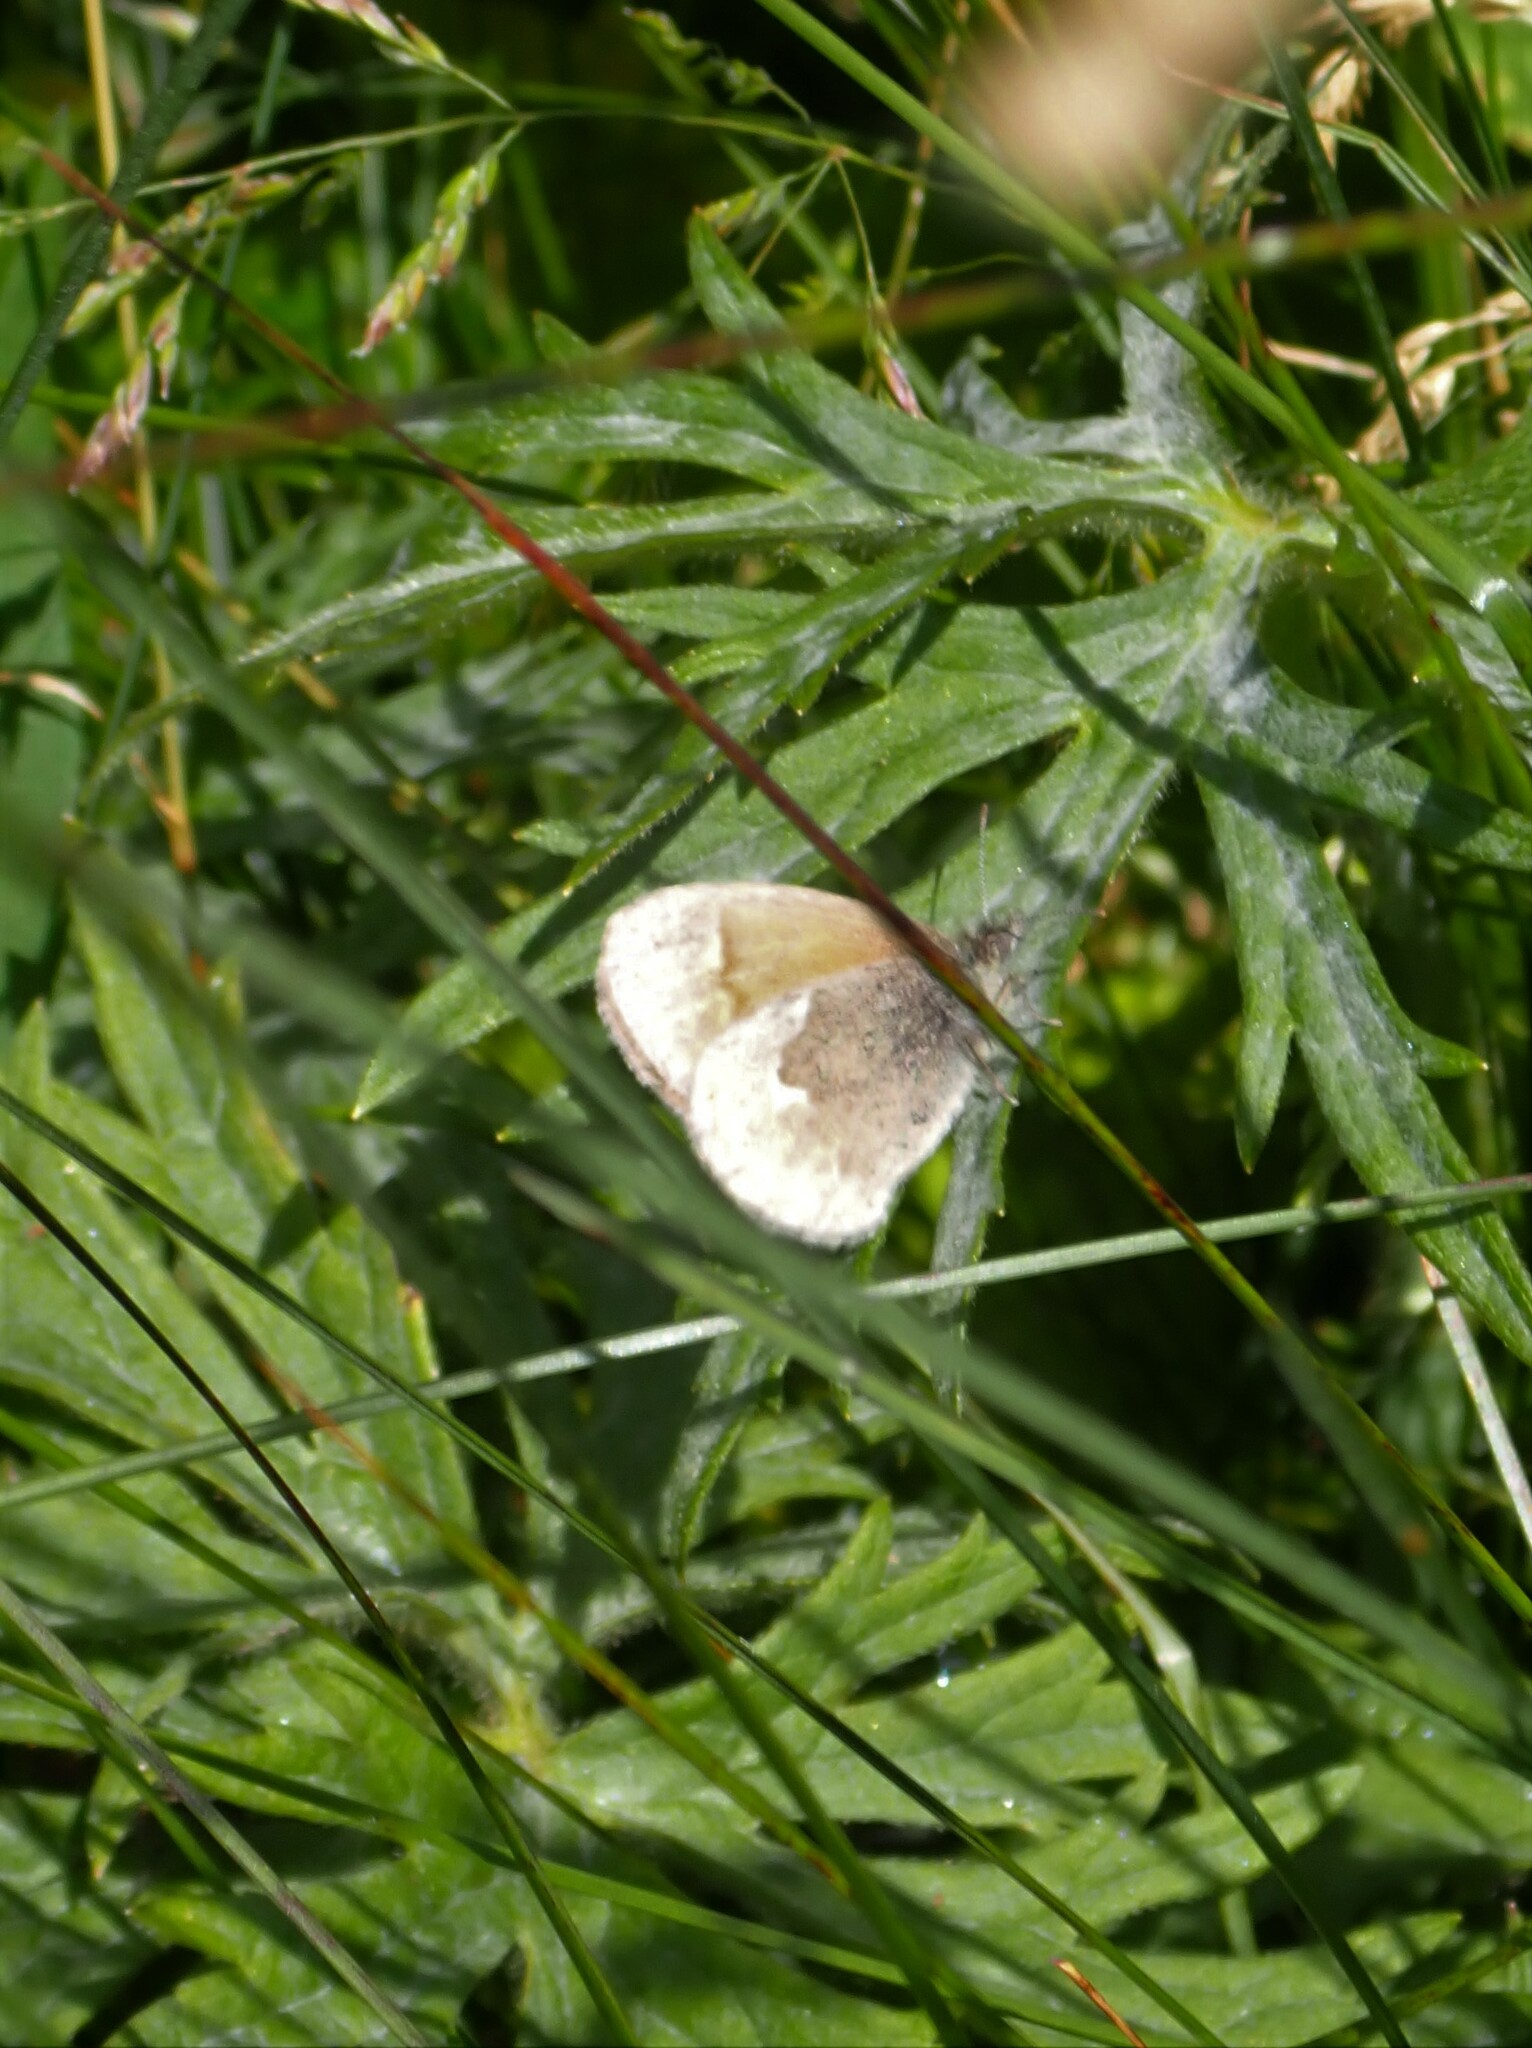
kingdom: Animalia
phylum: Arthropoda
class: Insecta
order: Lepidoptera
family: Nymphalidae
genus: Coenonympha
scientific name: Coenonympha california
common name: Common ringlet
